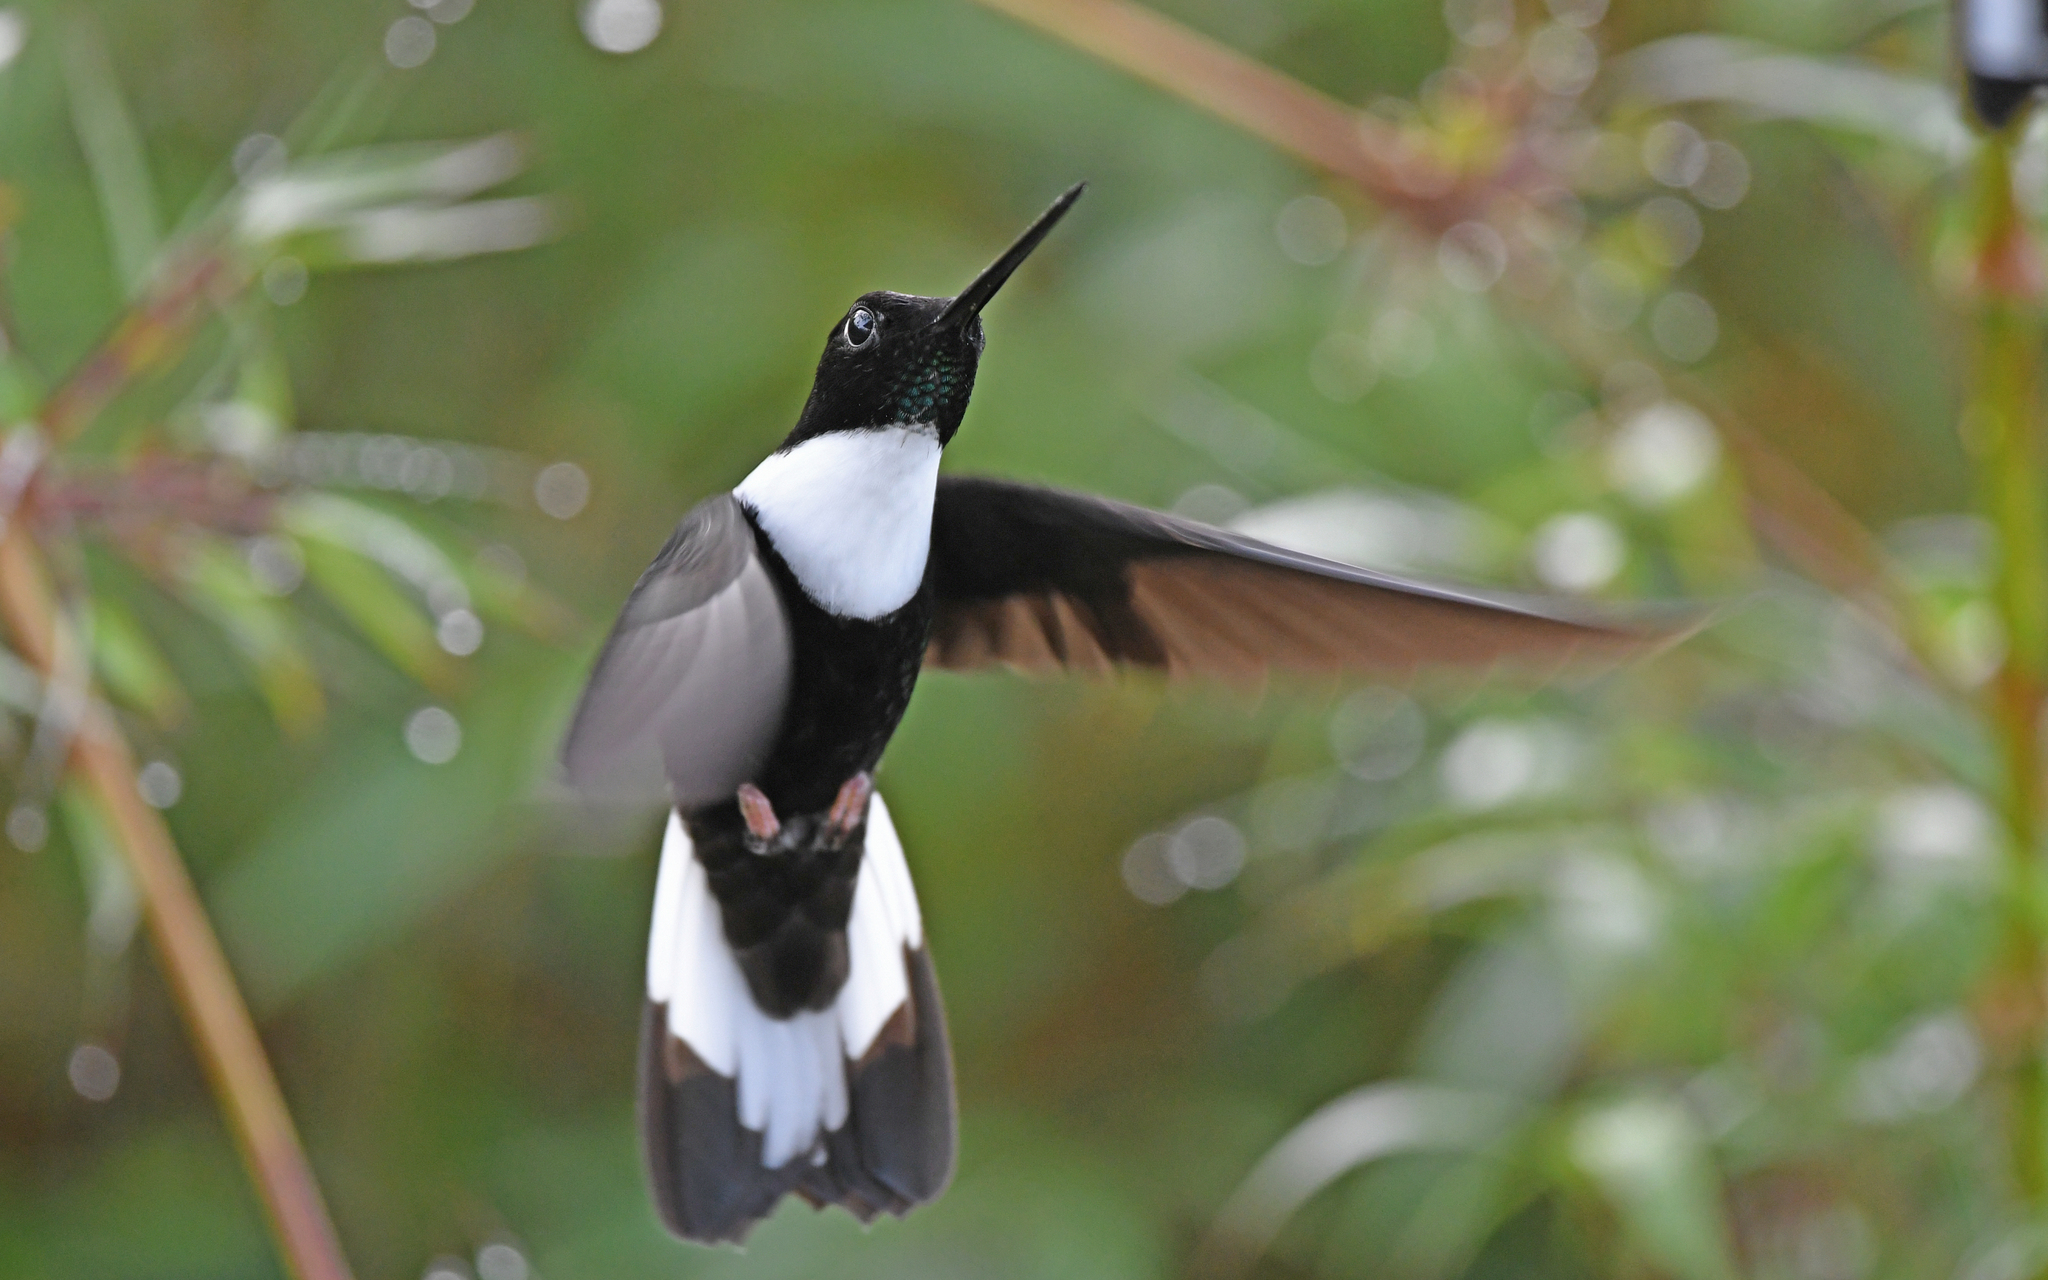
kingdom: Animalia
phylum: Chordata
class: Aves
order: Apodiformes
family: Trochilidae
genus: Coeligena
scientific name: Coeligena torquata
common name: Collared inca
